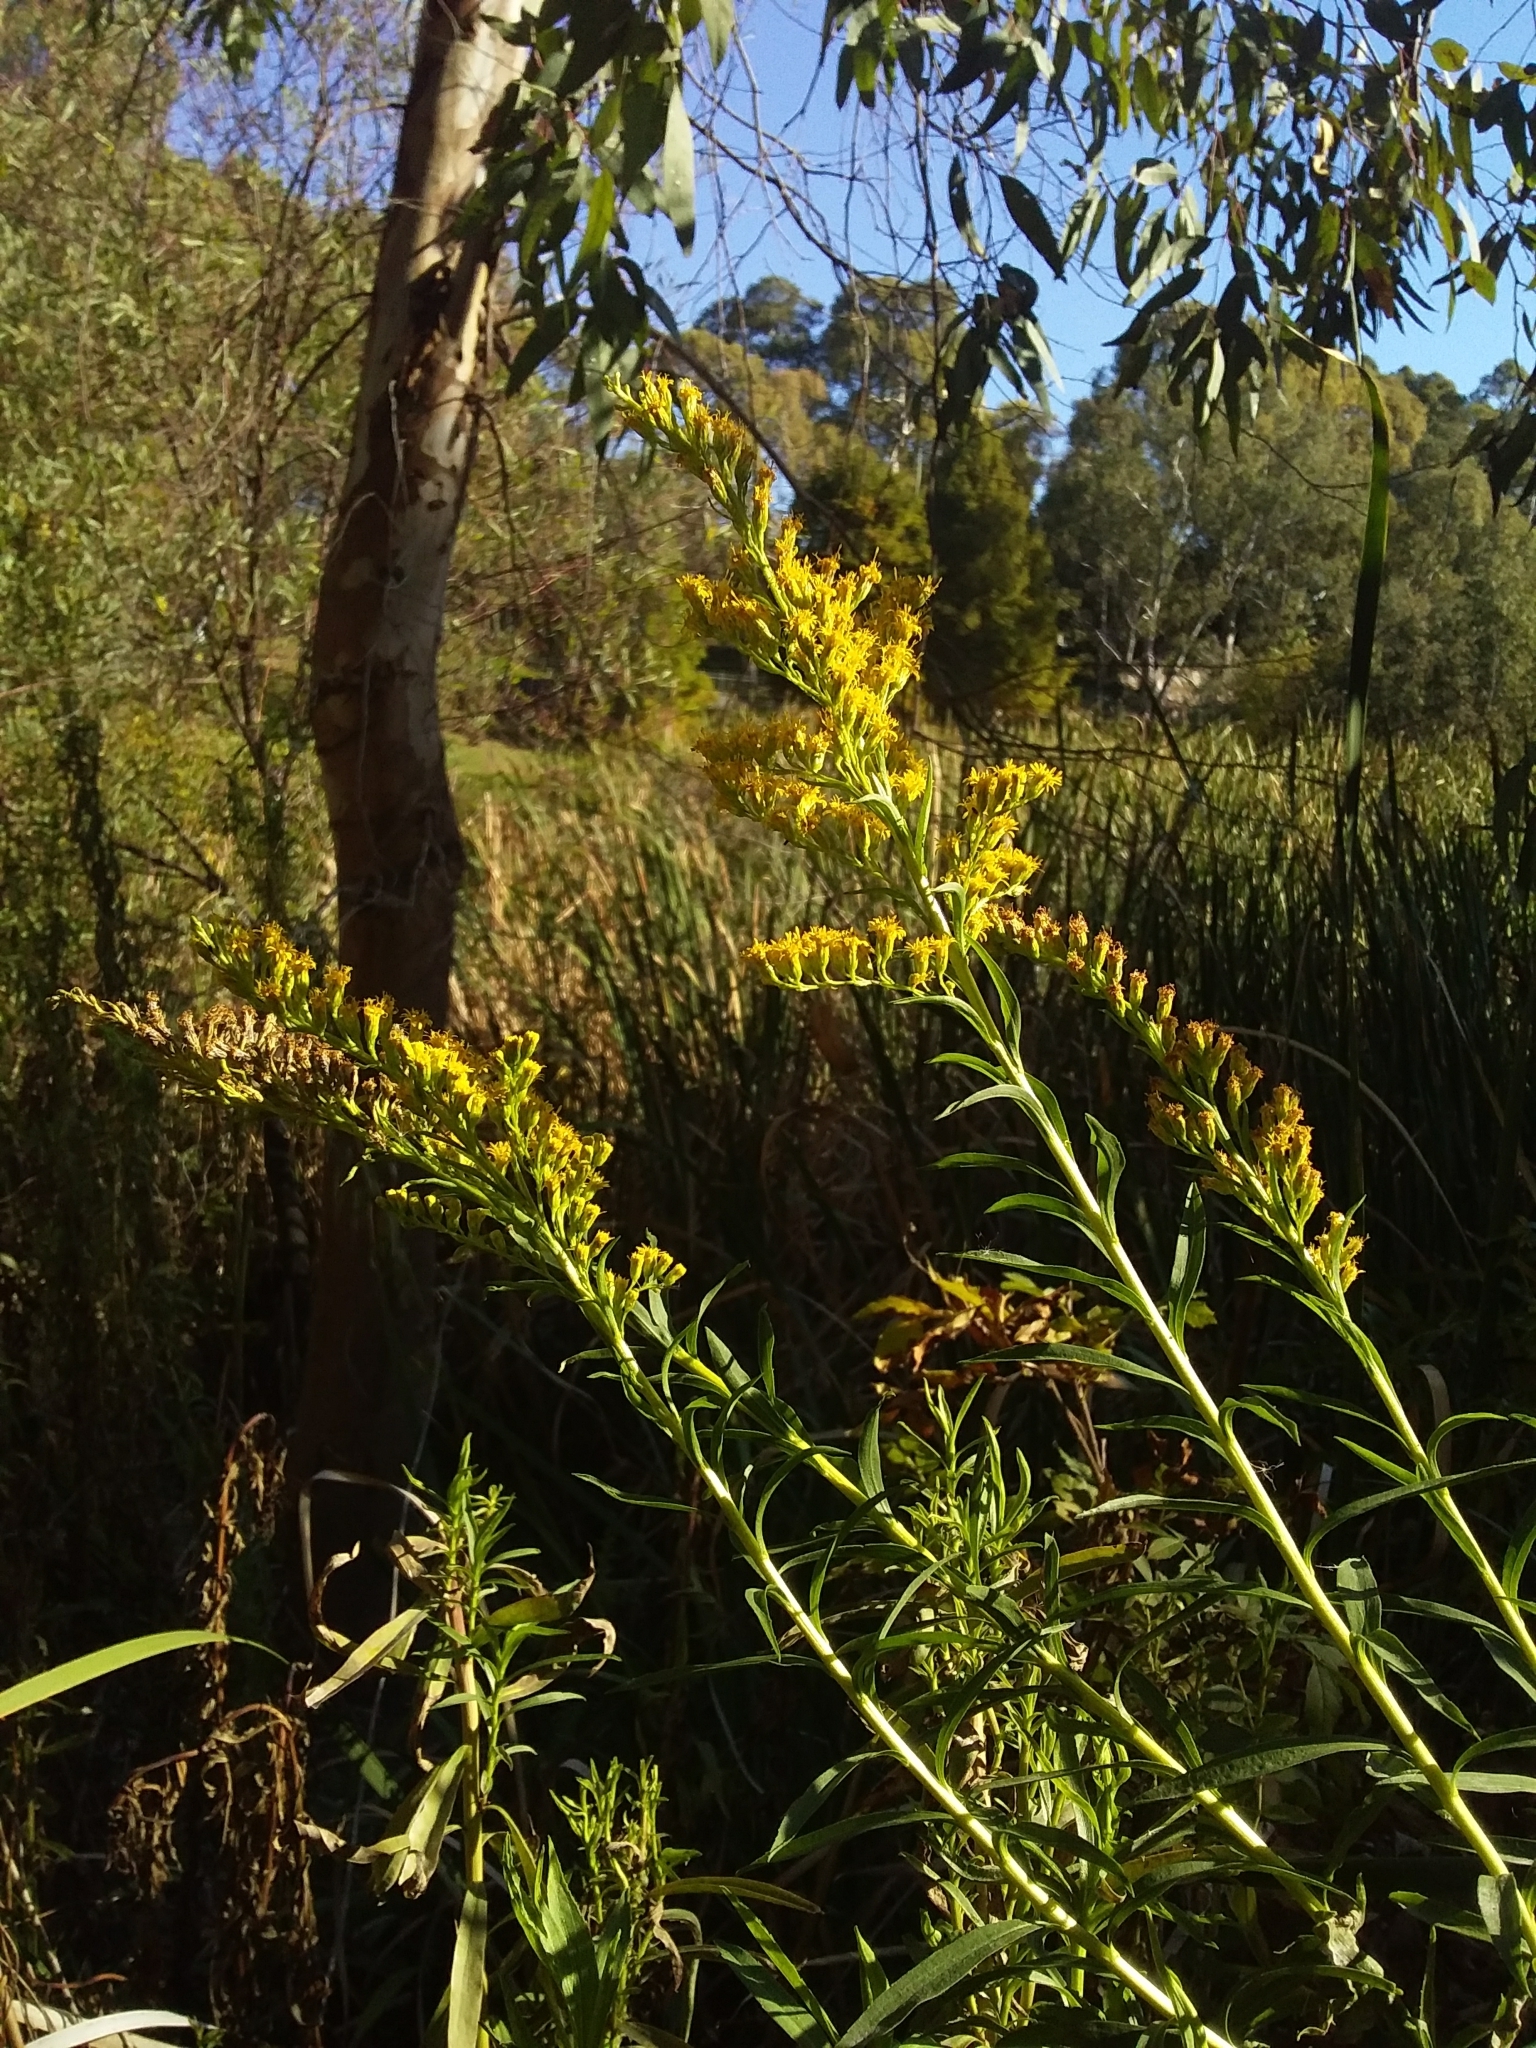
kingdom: Plantae
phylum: Tracheophyta
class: Magnoliopsida
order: Asterales
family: Asteraceae
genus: Solidago
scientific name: Solidago canadensis
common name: Canada goldenrod
